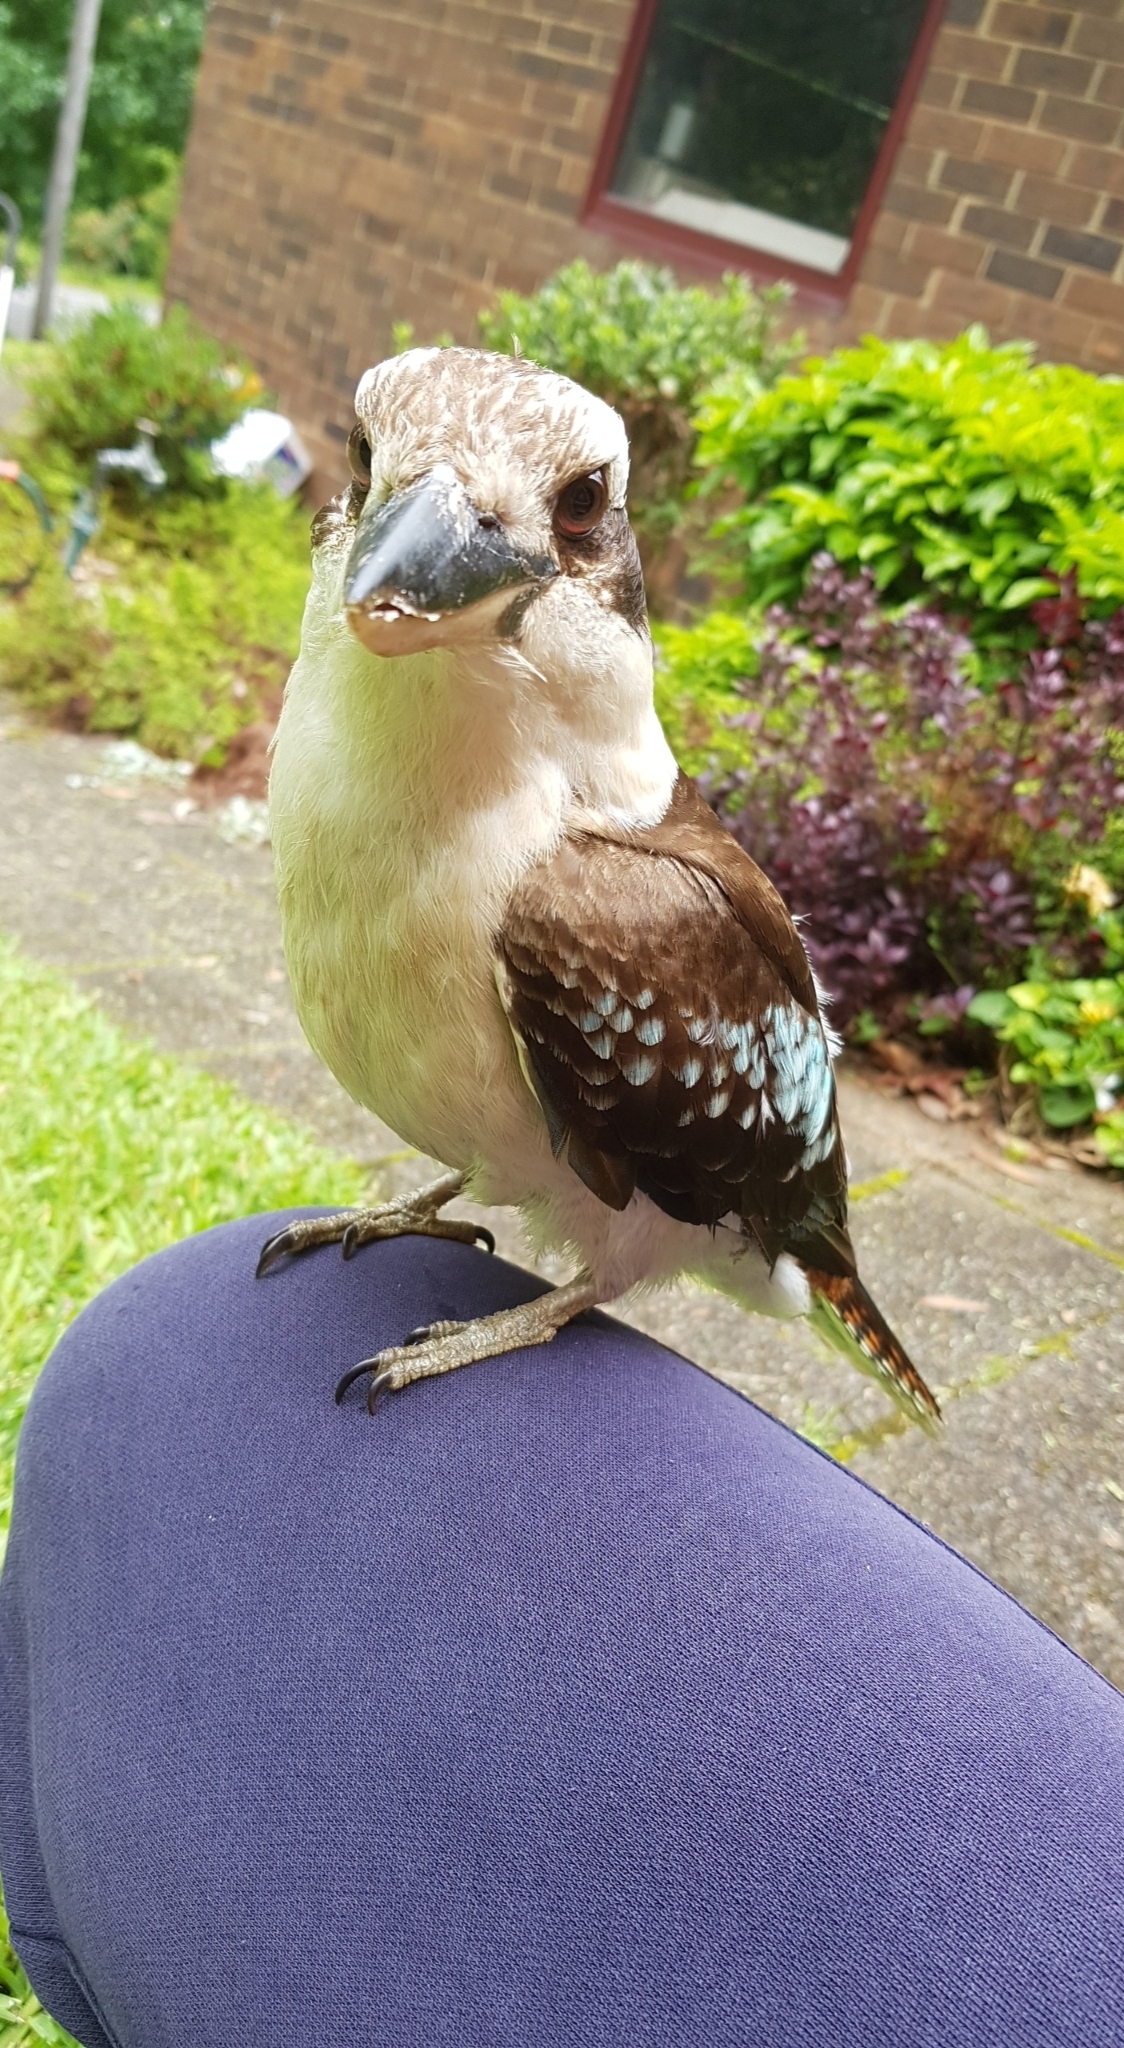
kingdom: Animalia
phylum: Chordata
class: Aves
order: Coraciiformes
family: Alcedinidae
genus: Dacelo
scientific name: Dacelo novaeguineae
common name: Laughing kookaburra
